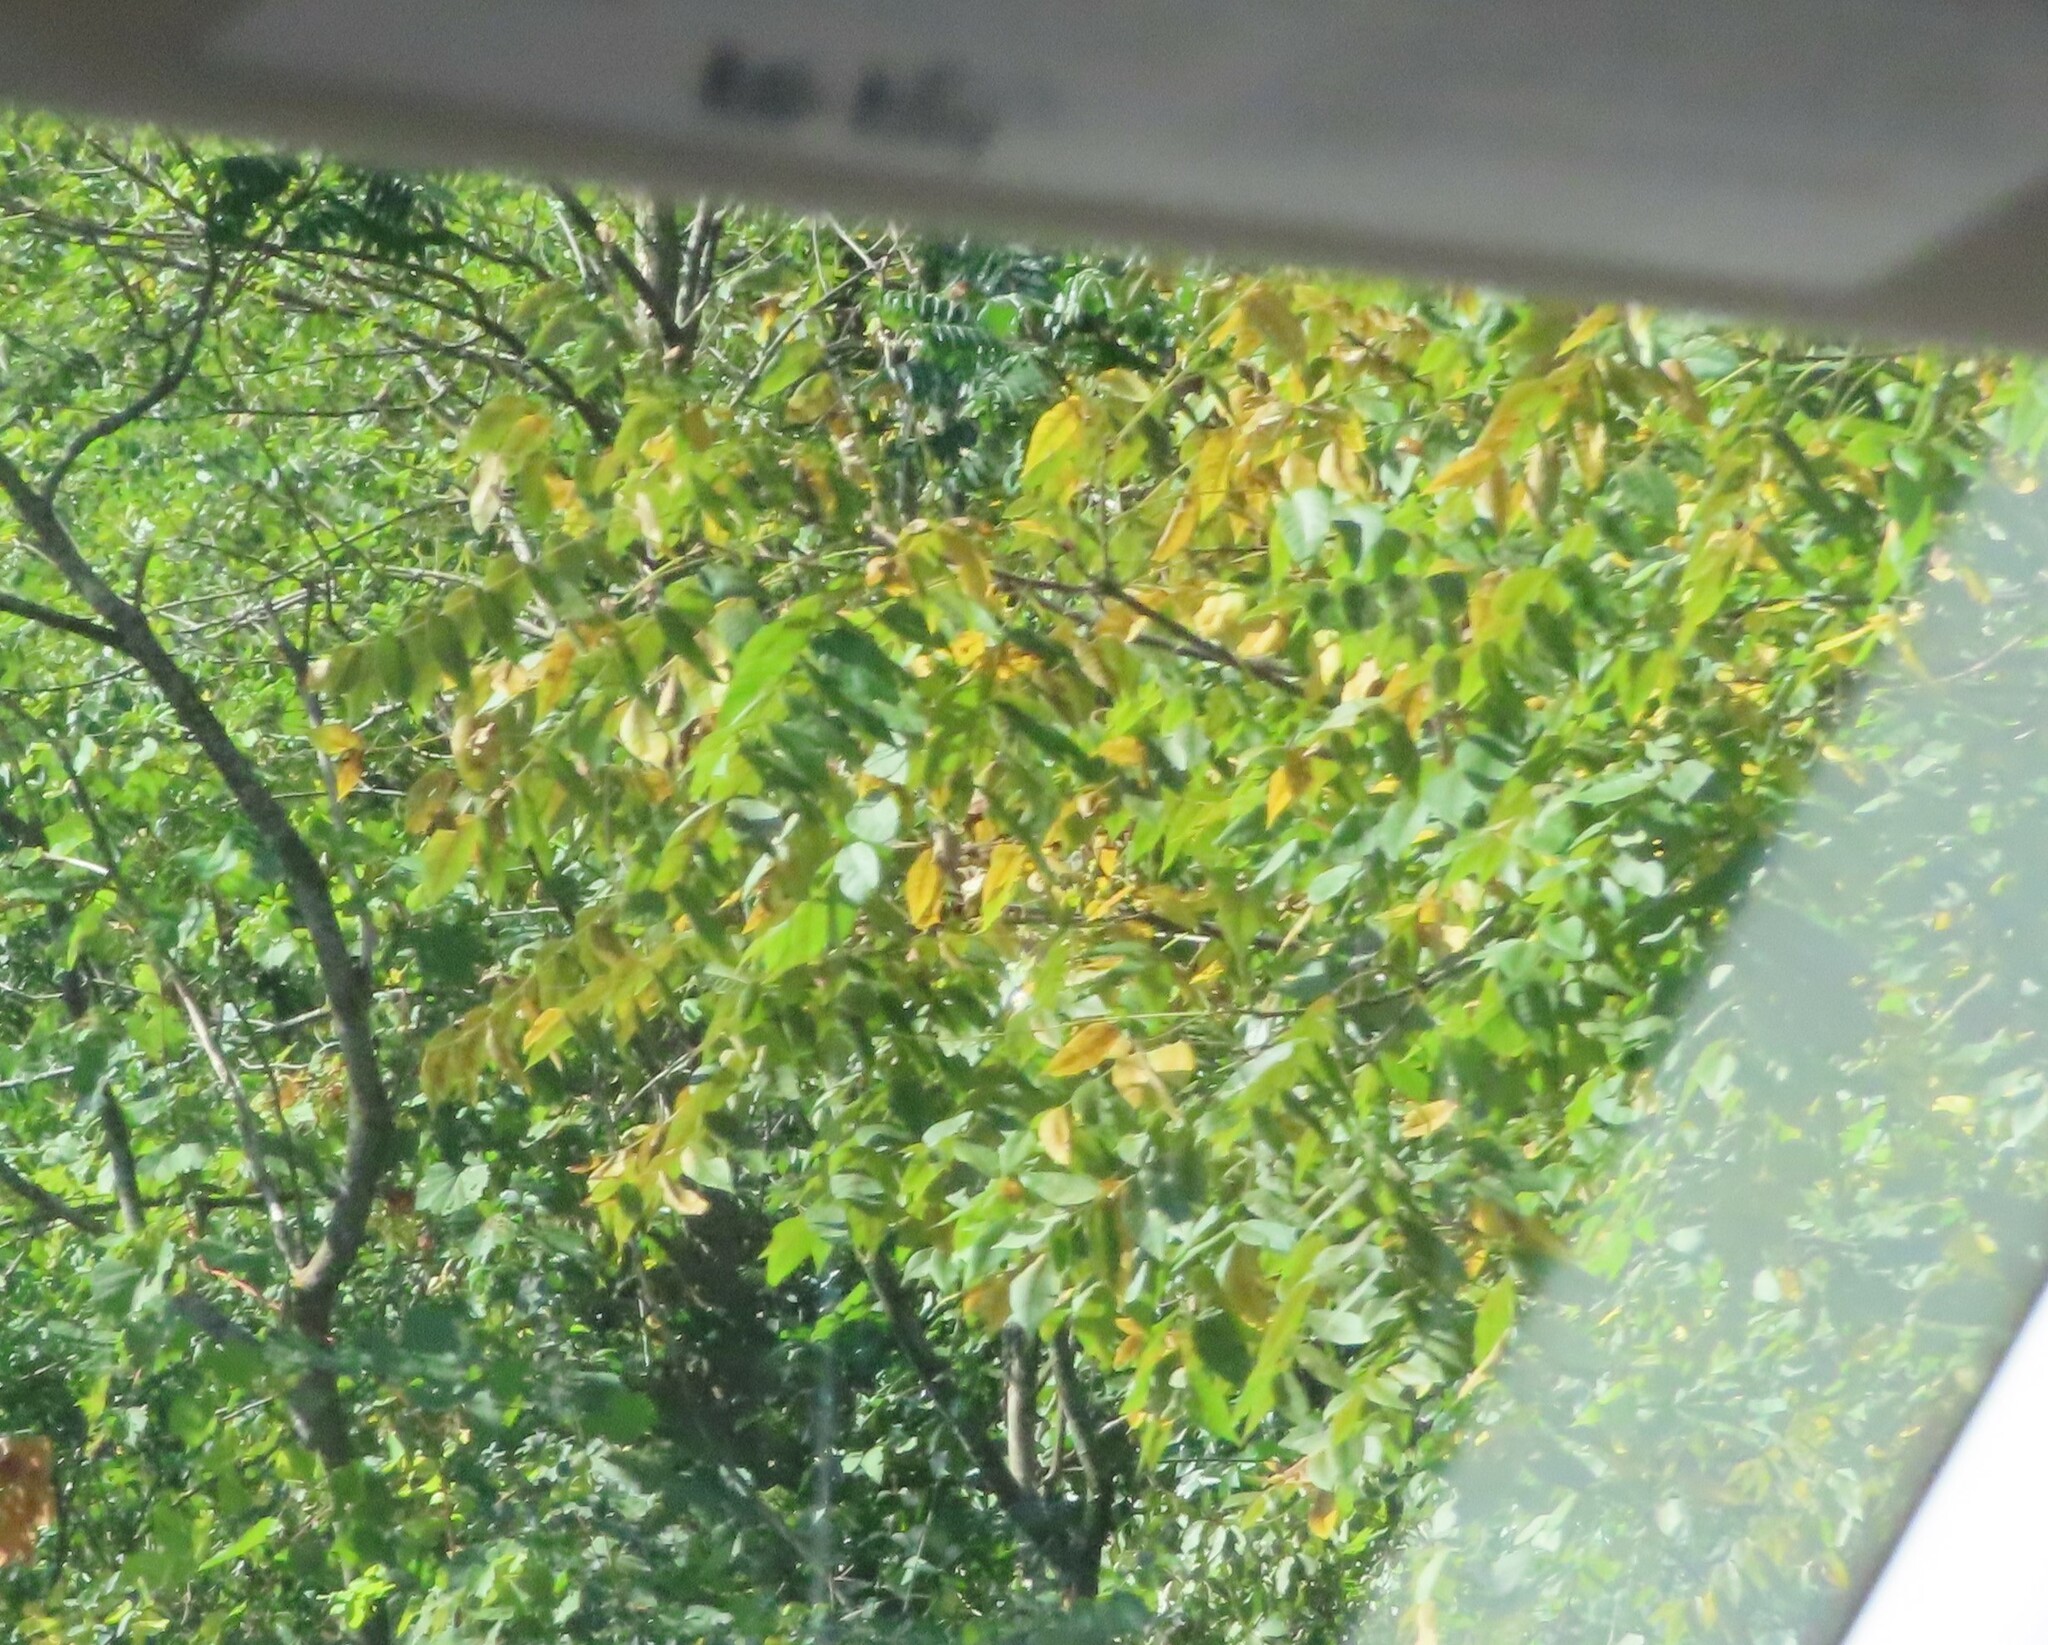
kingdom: Plantae
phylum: Tracheophyta
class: Magnoliopsida
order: Fagales
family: Juglandaceae
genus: Juglans
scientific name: Juglans nigra
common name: Black walnut
